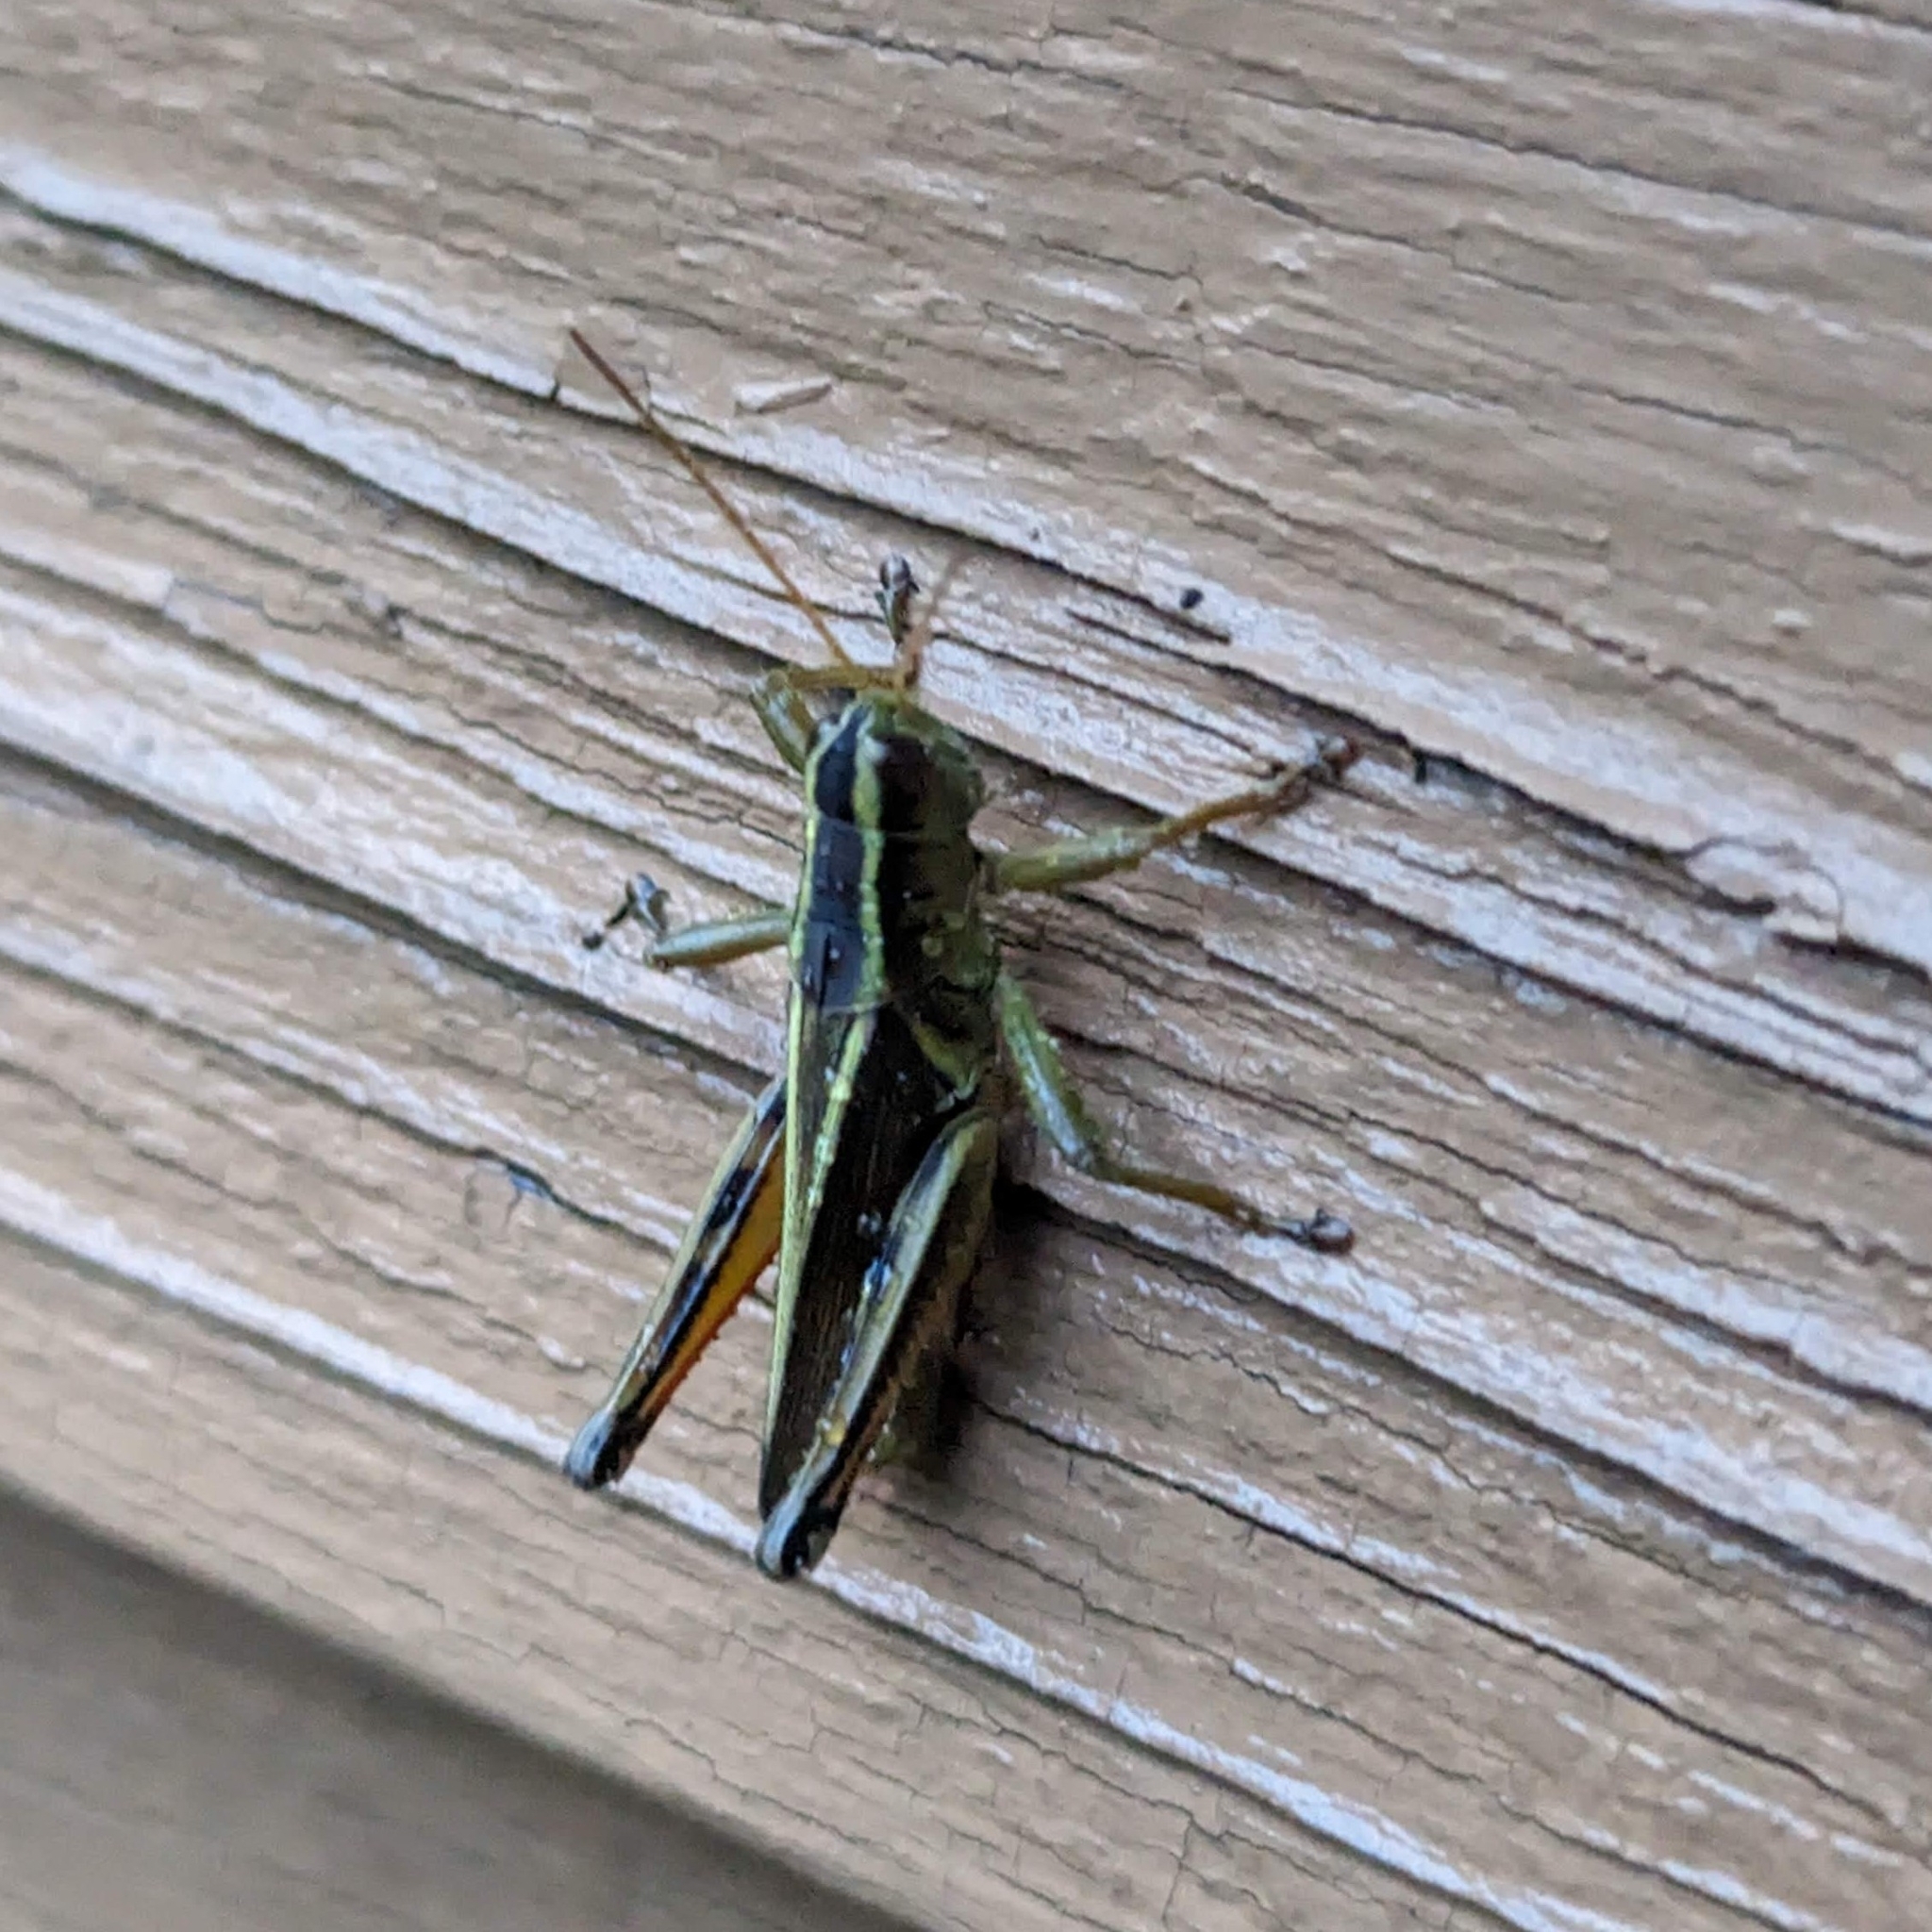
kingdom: Animalia
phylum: Arthropoda
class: Insecta
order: Orthoptera
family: Acrididae
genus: Melanoplus
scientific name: Melanoplus bivittatus
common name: Two-striped grasshopper
